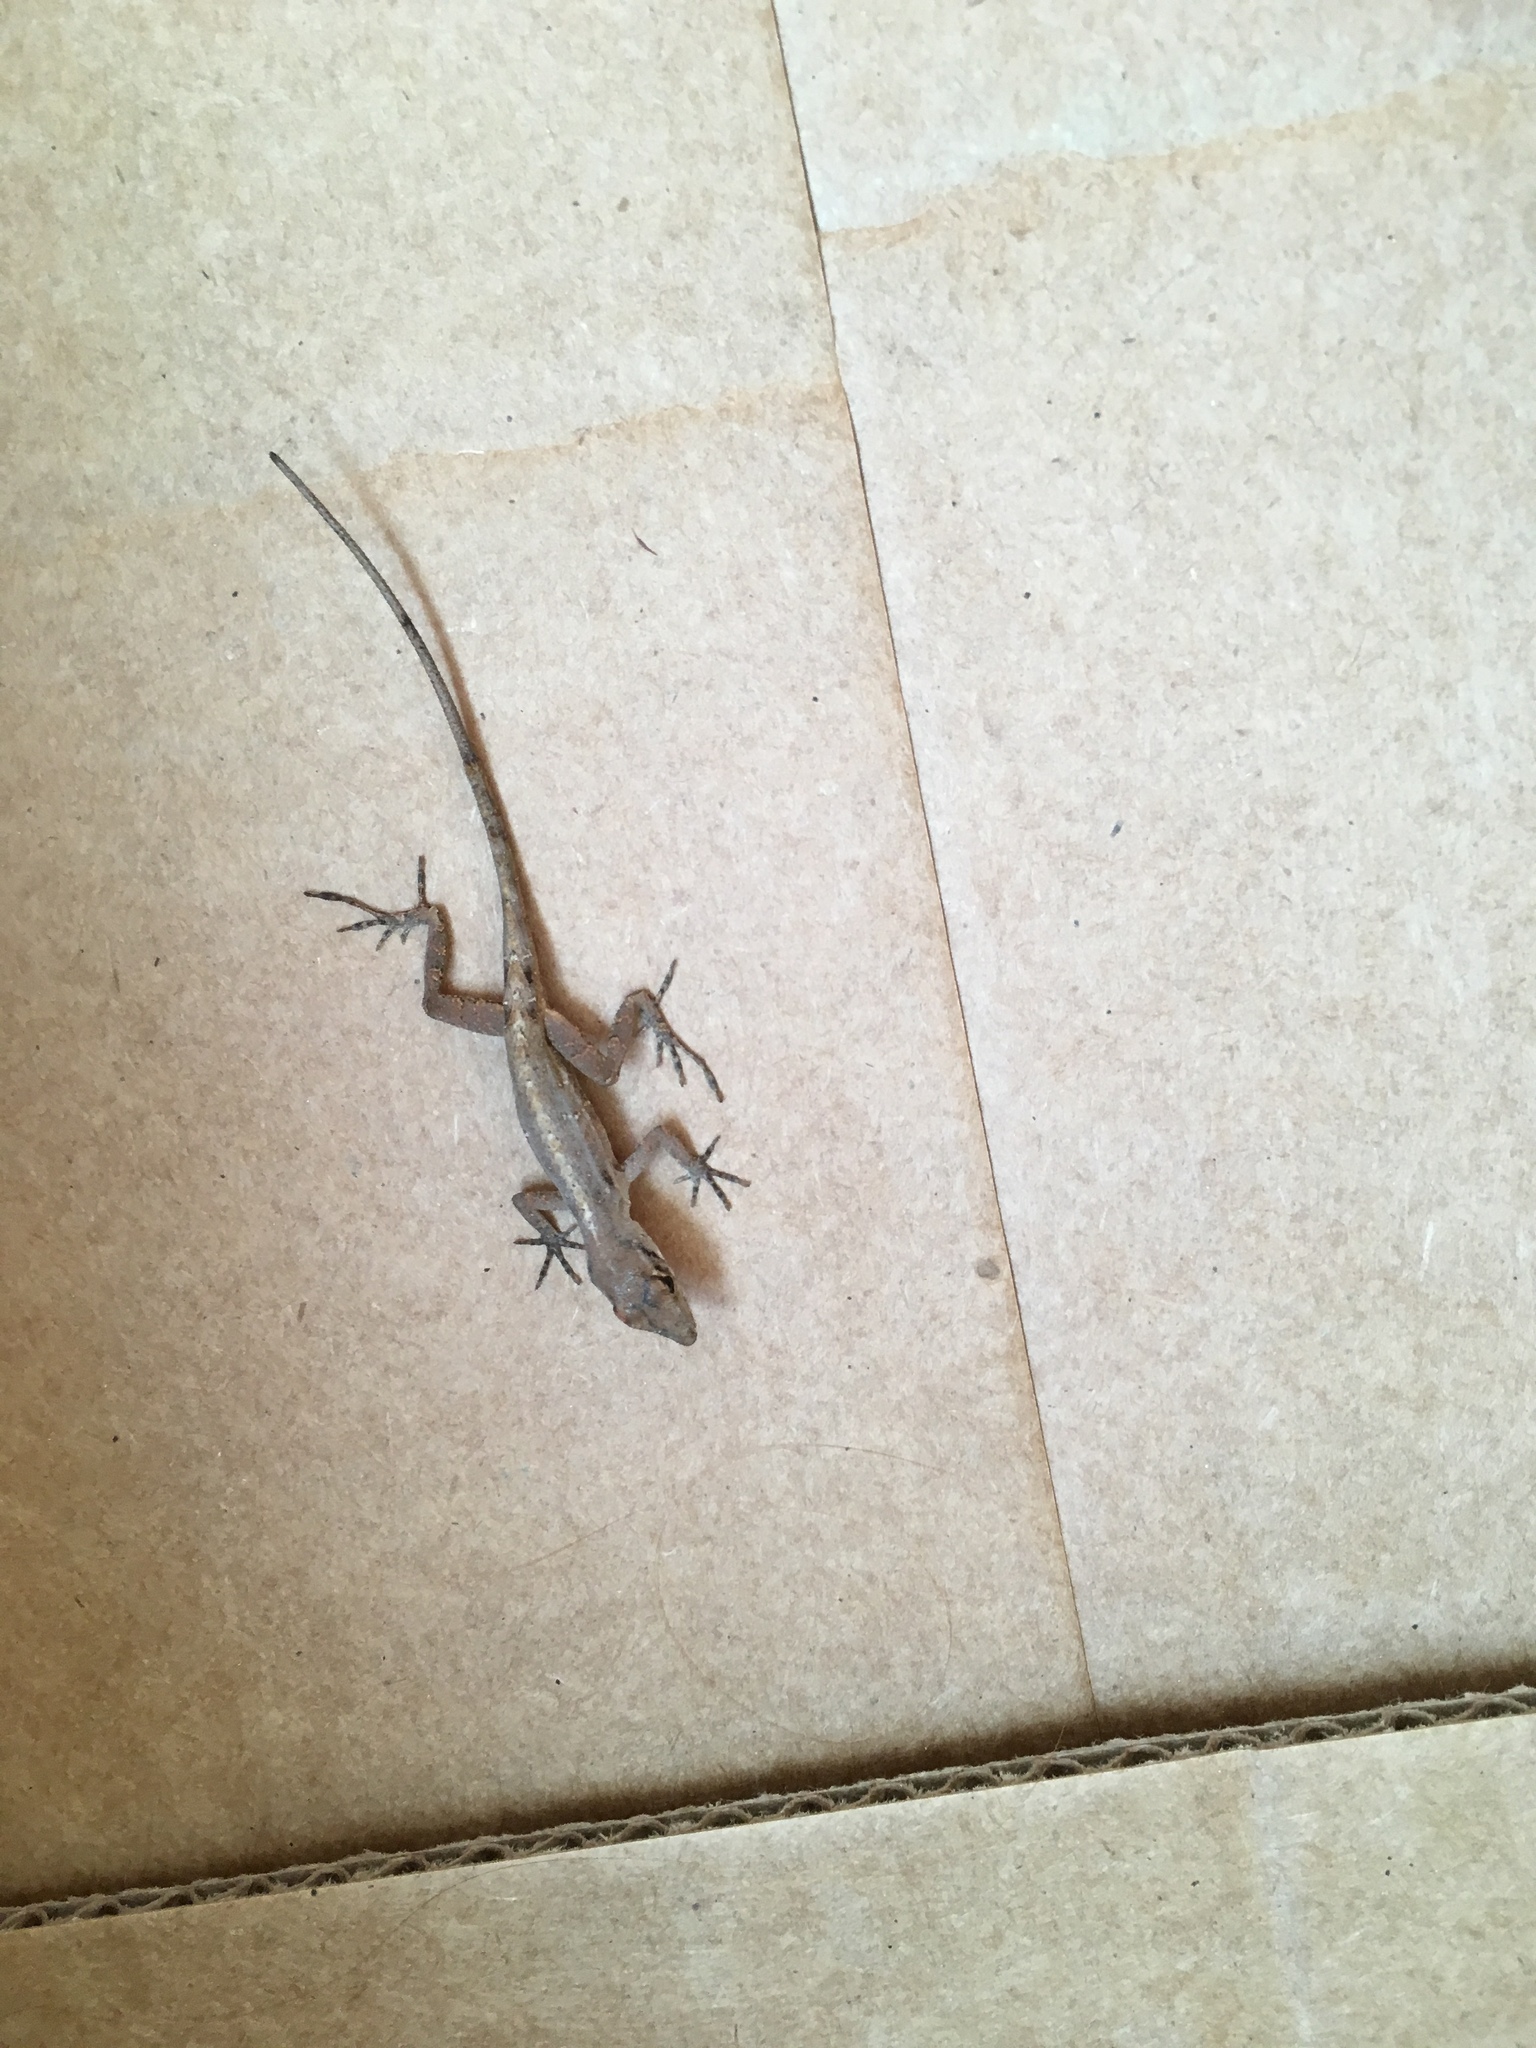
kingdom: Animalia
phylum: Chordata
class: Squamata
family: Dactyloidae
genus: Anolis
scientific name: Anolis sagrei
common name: Brown anole
